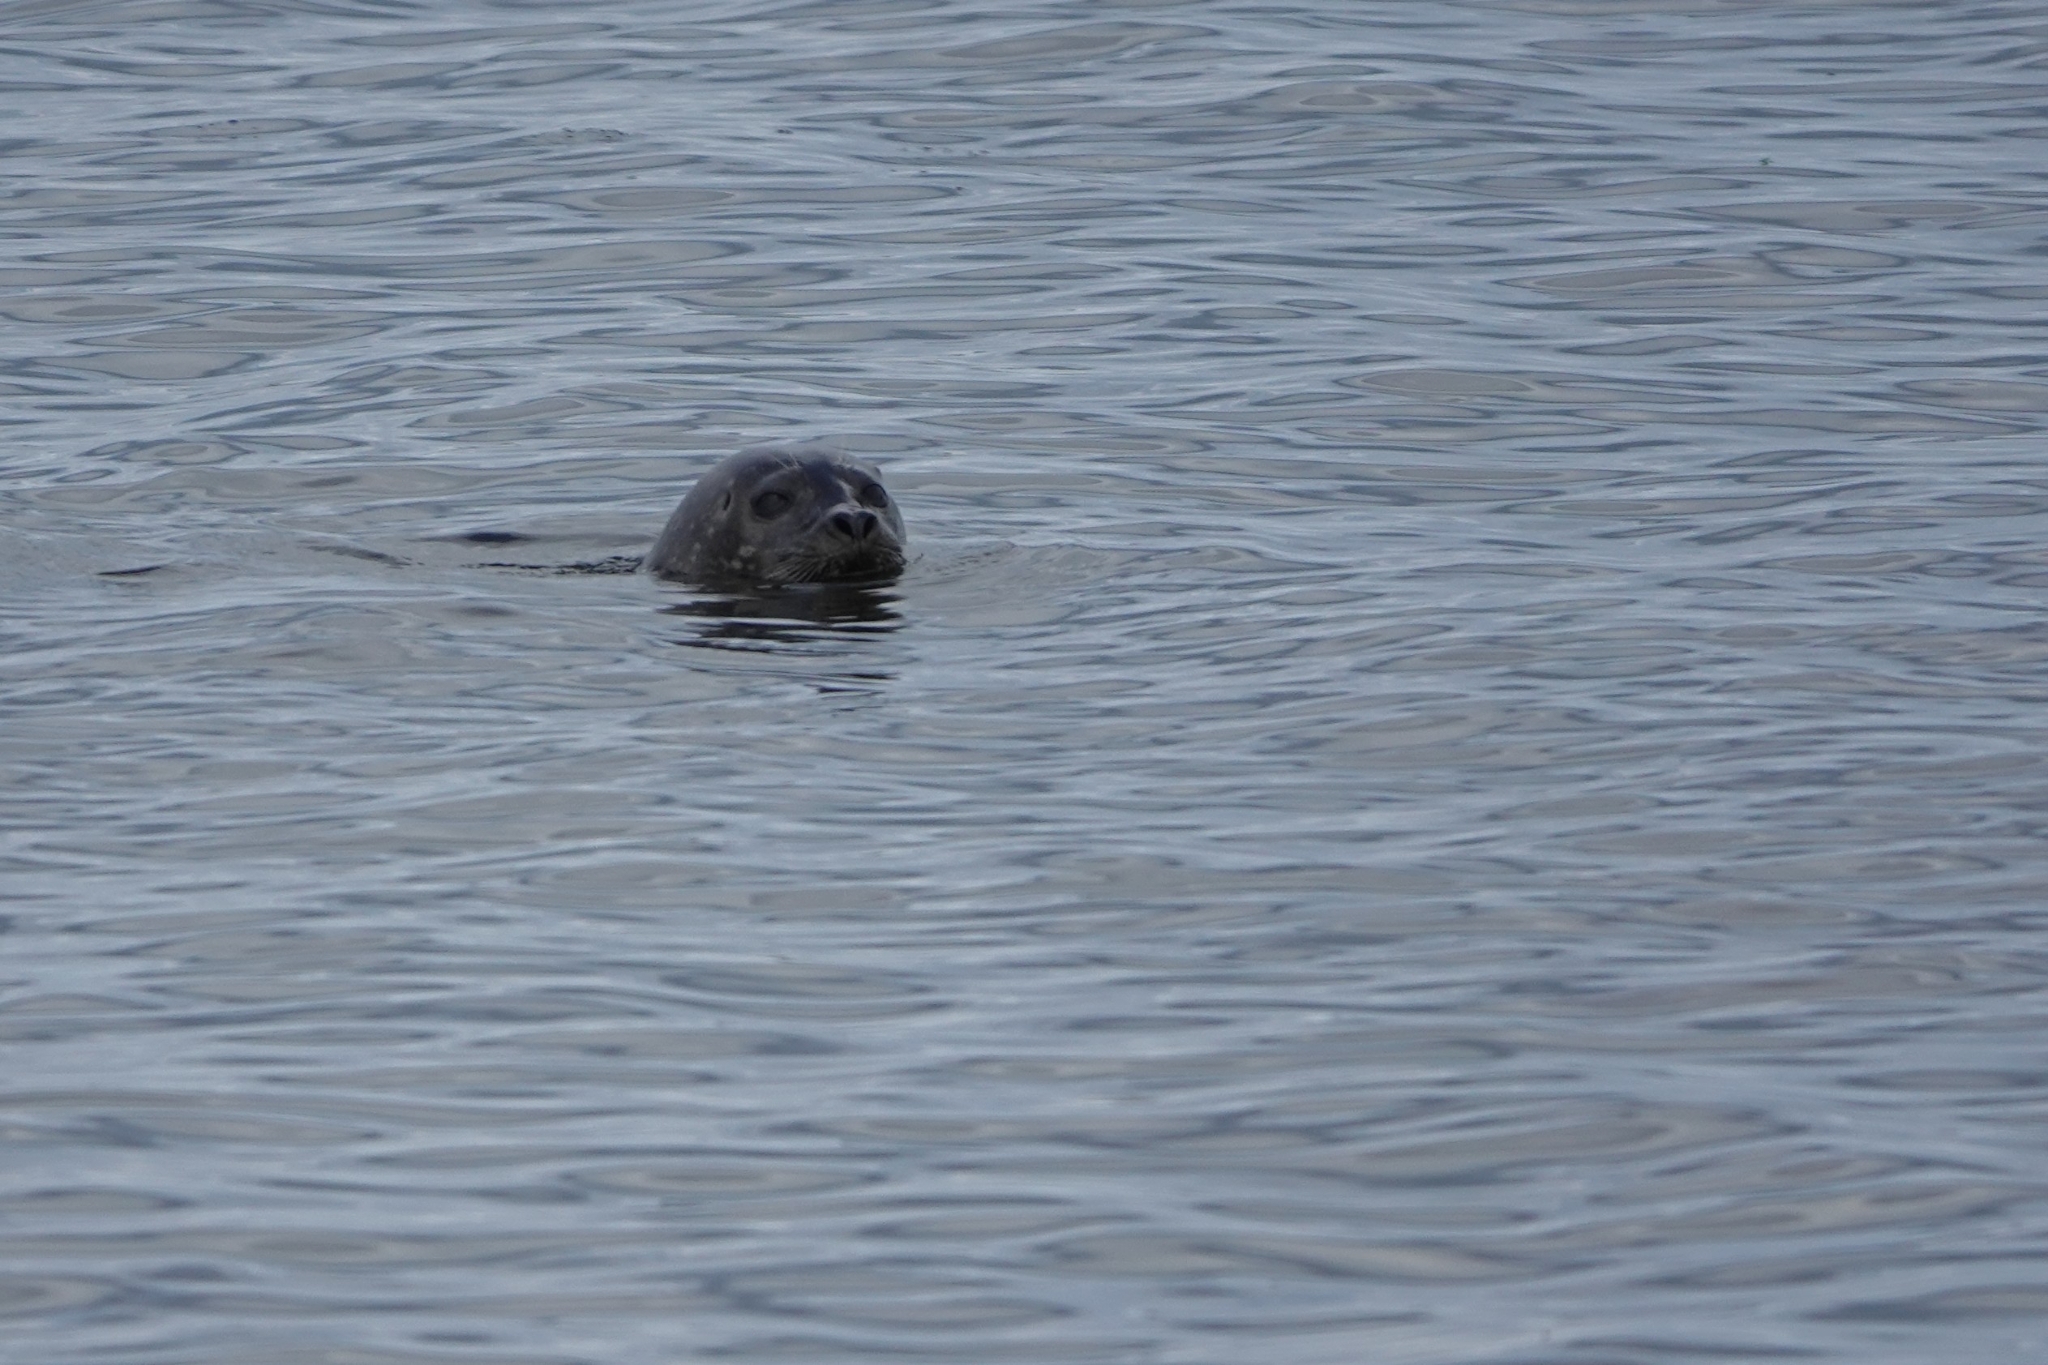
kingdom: Animalia
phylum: Chordata
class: Mammalia
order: Carnivora
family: Phocidae
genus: Phoca
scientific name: Phoca vitulina
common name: Harbor seal
